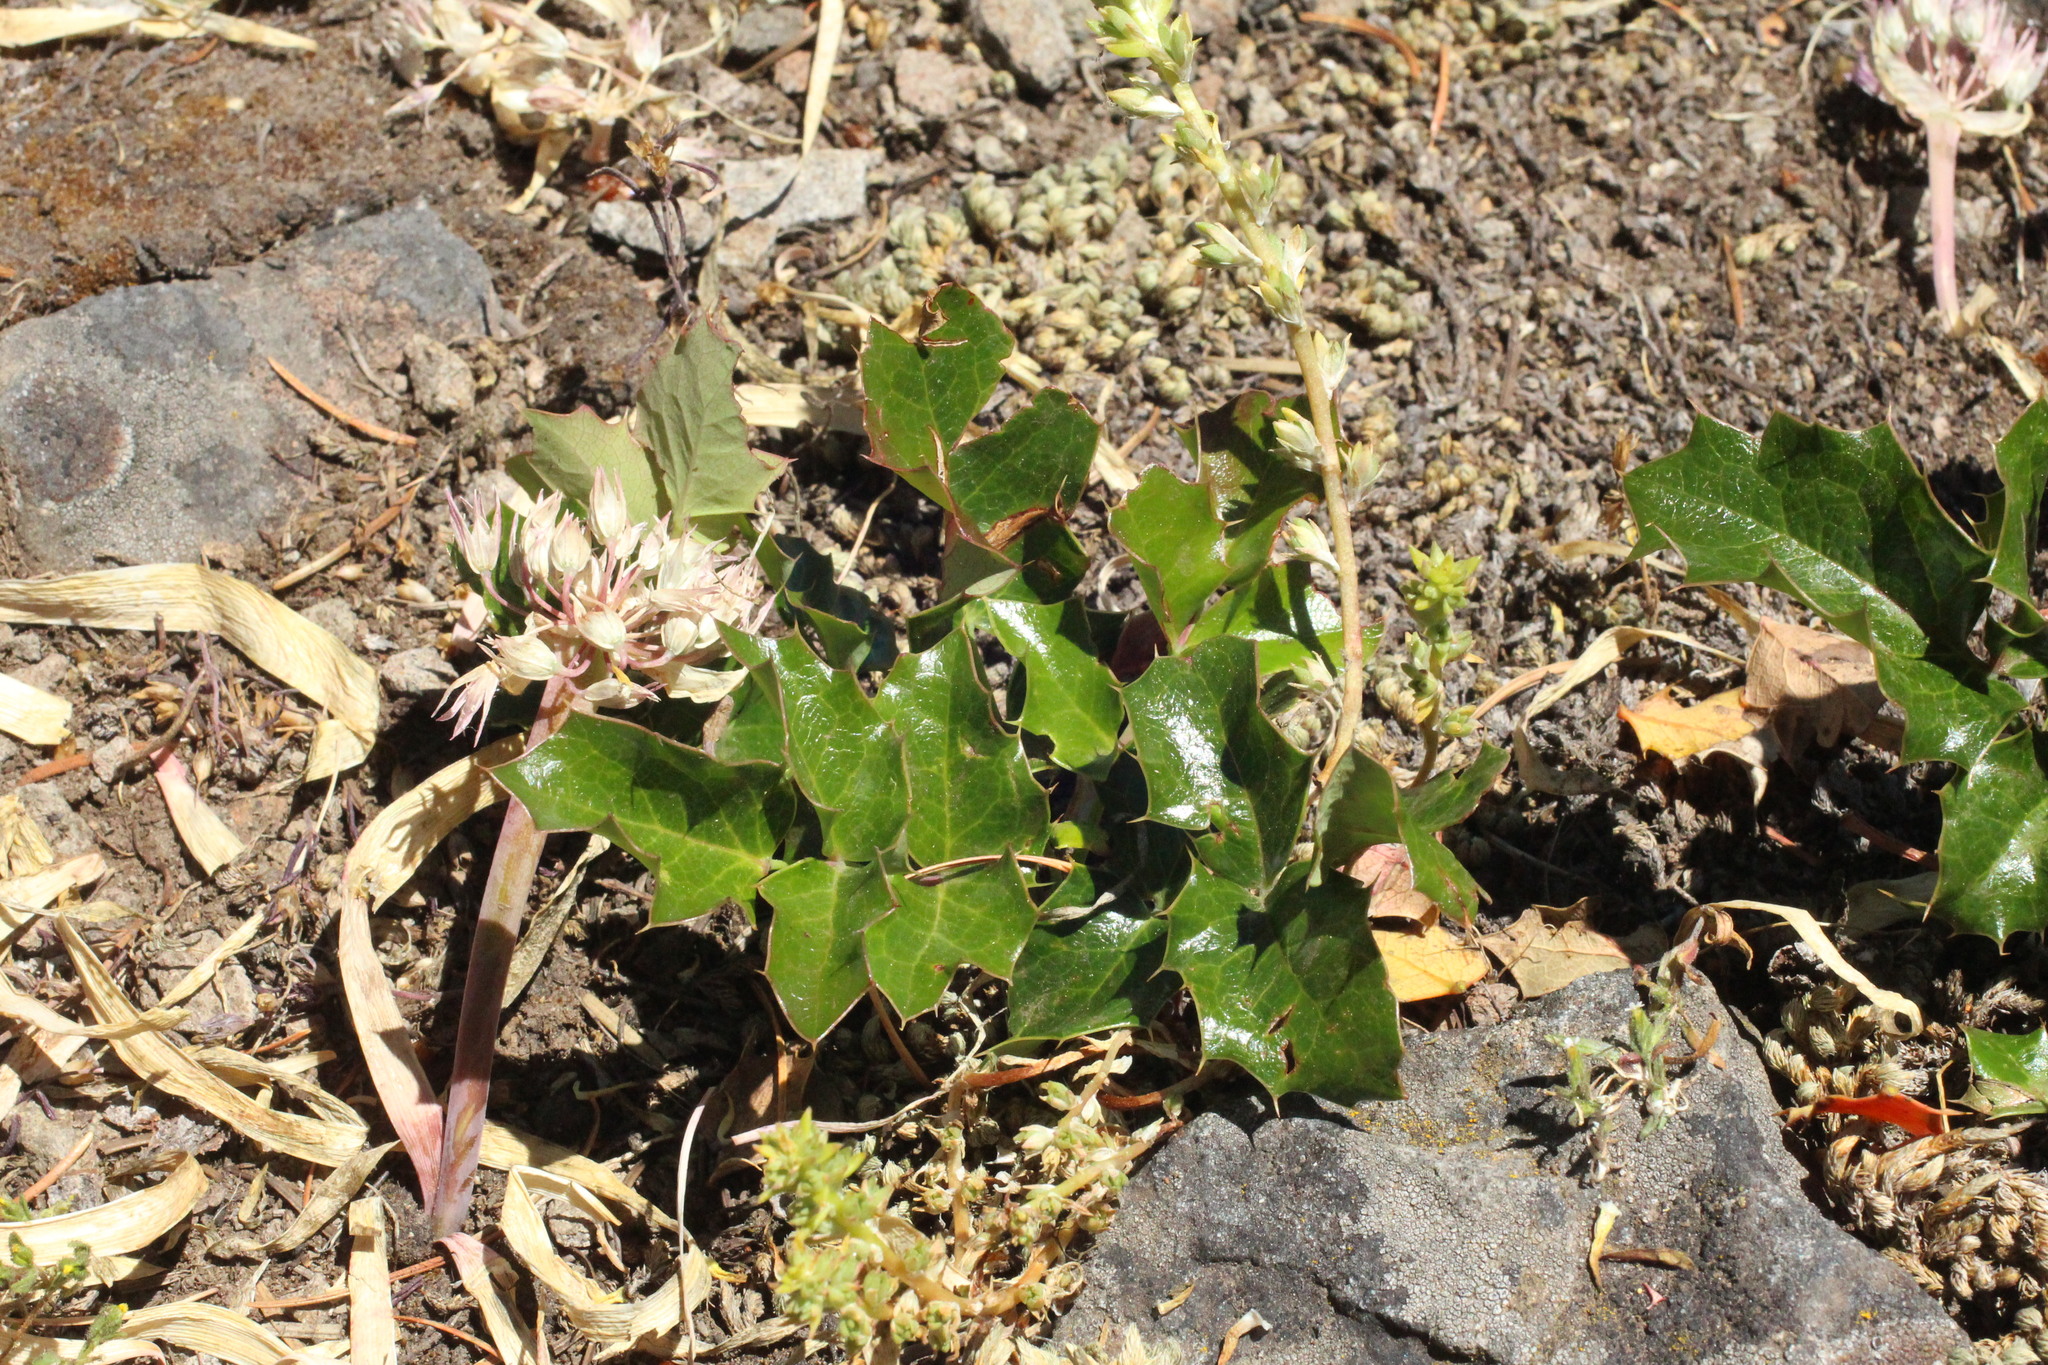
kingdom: Plantae
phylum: Tracheophyta
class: Magnoliopsida
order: Ranunculales
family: Berberidaceae
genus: Mahonia
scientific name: Mahonia aquifolium
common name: Oregon-grape
